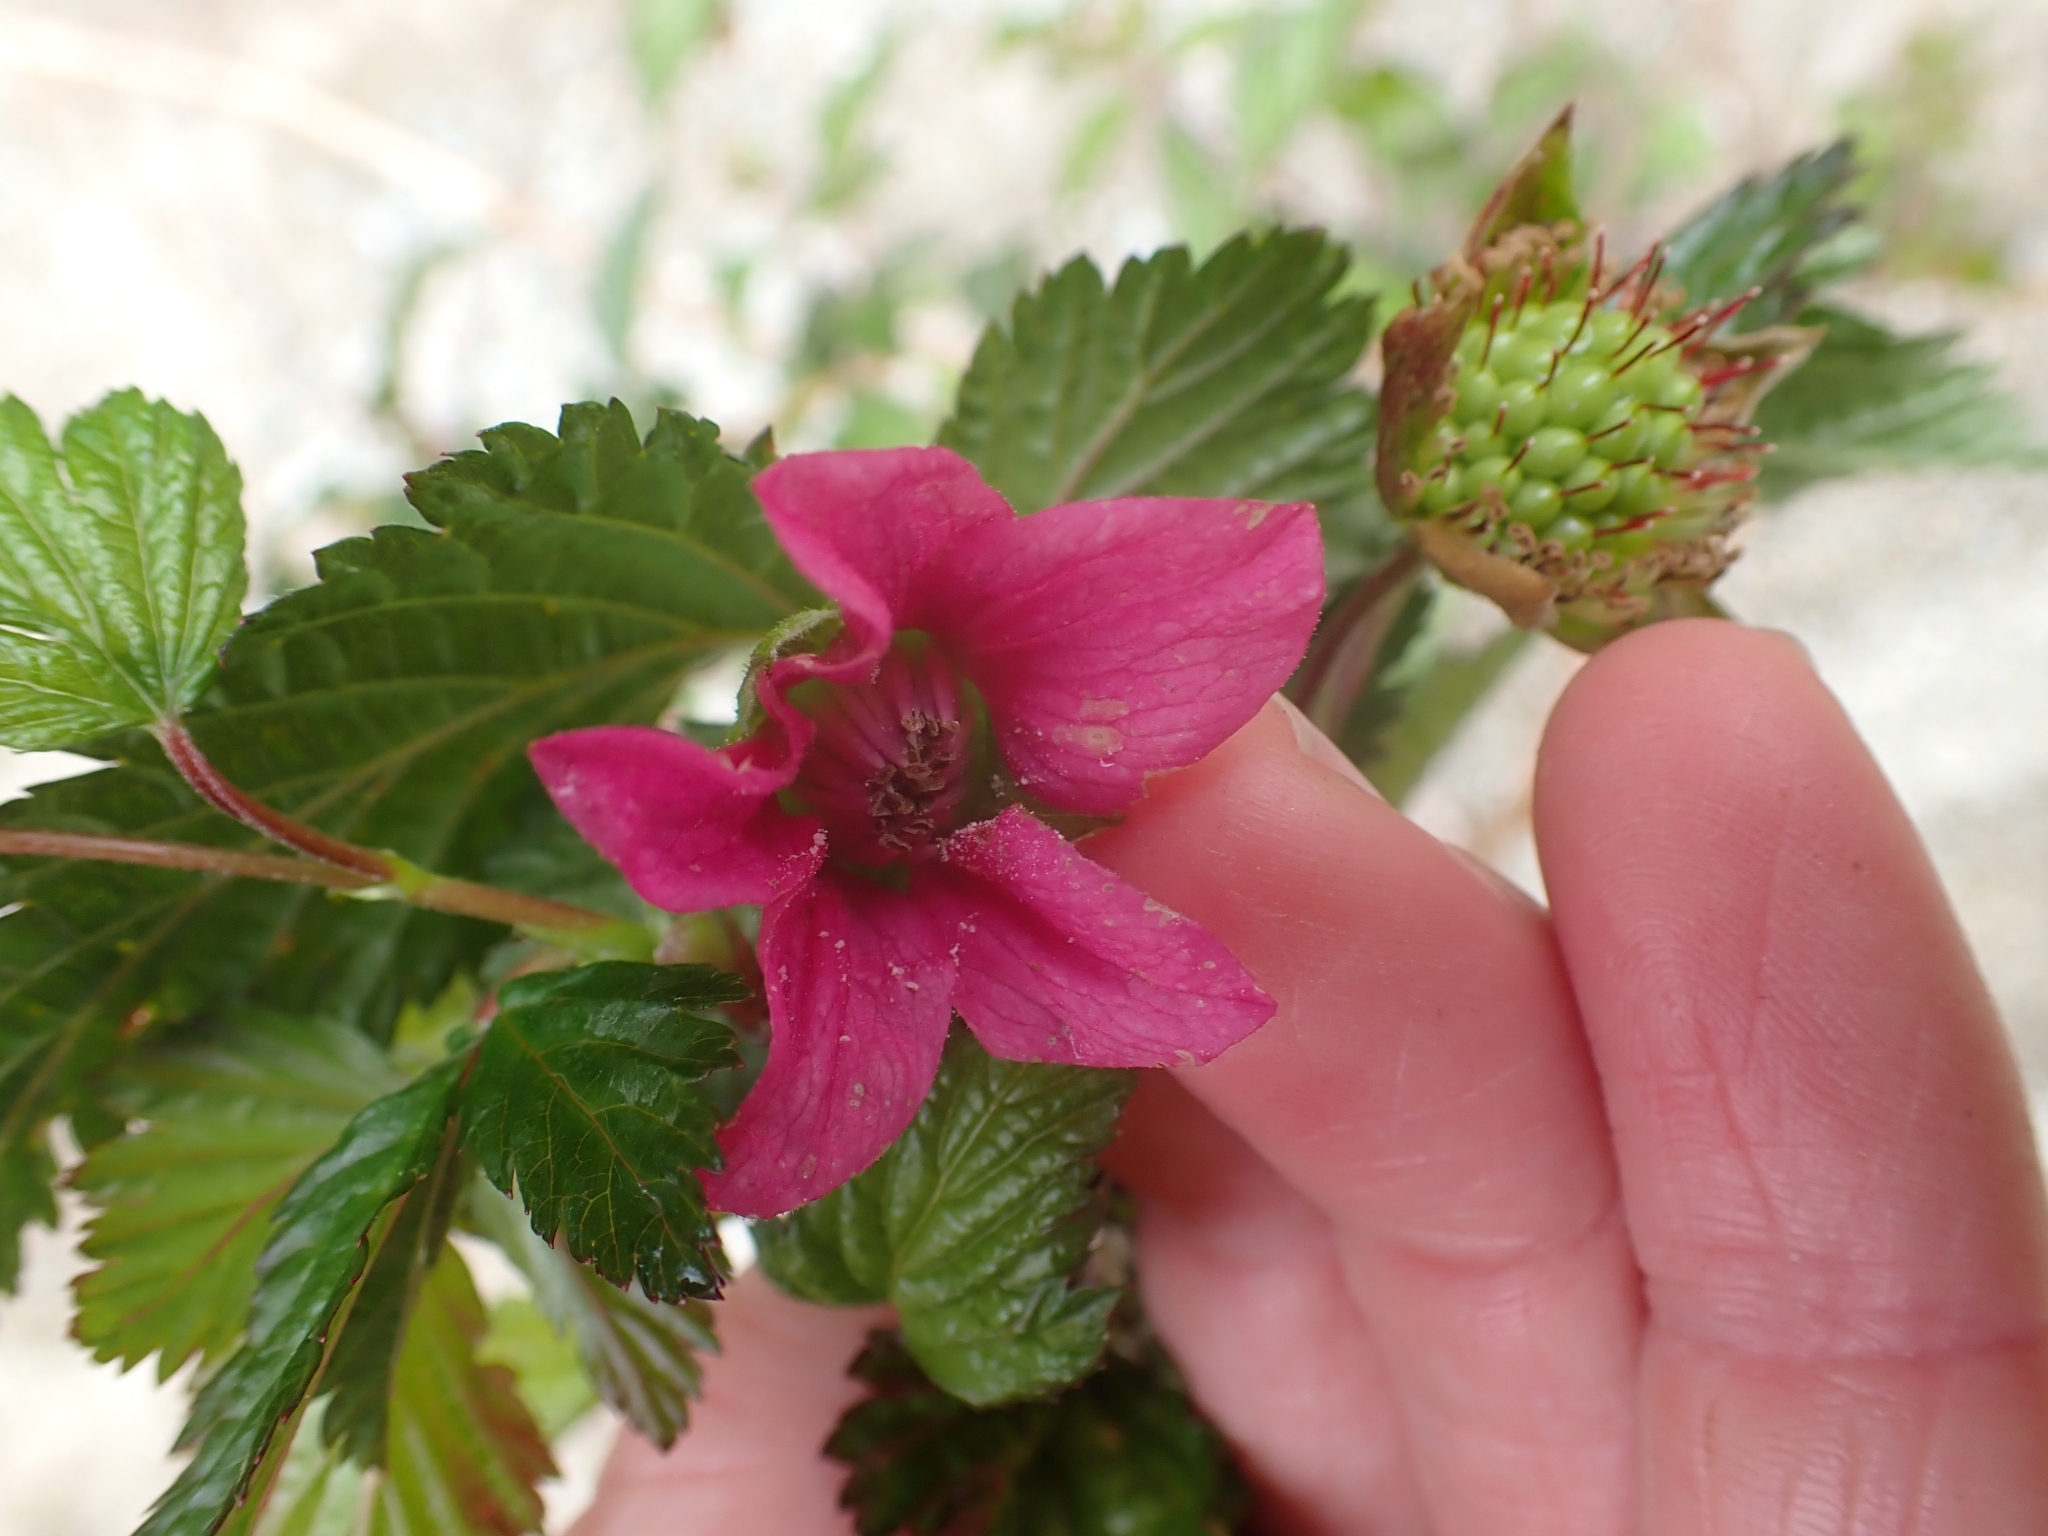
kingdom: Plantae
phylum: Tracheophyta
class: Magnoliopsida
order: Rosales
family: Rosaceae
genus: Rubus
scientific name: Rubus spectabilis
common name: Salmonberry
